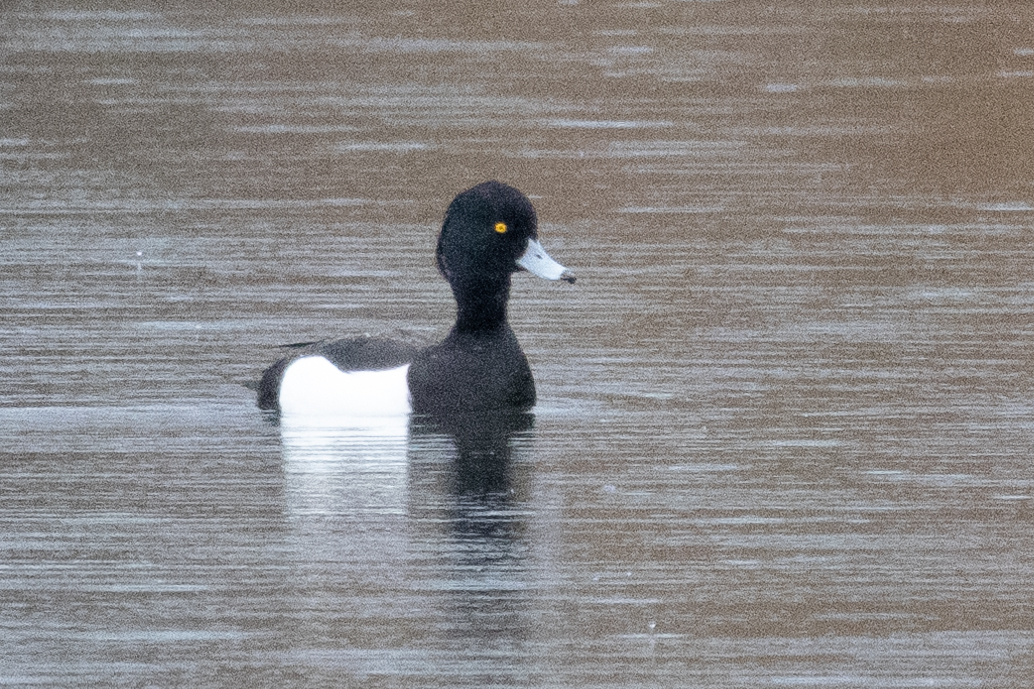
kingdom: Animalia
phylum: Chordata
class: Aves
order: Anseriformes
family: Anatidae
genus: Aythya
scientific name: Aythya fuligula
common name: Tufted duck
